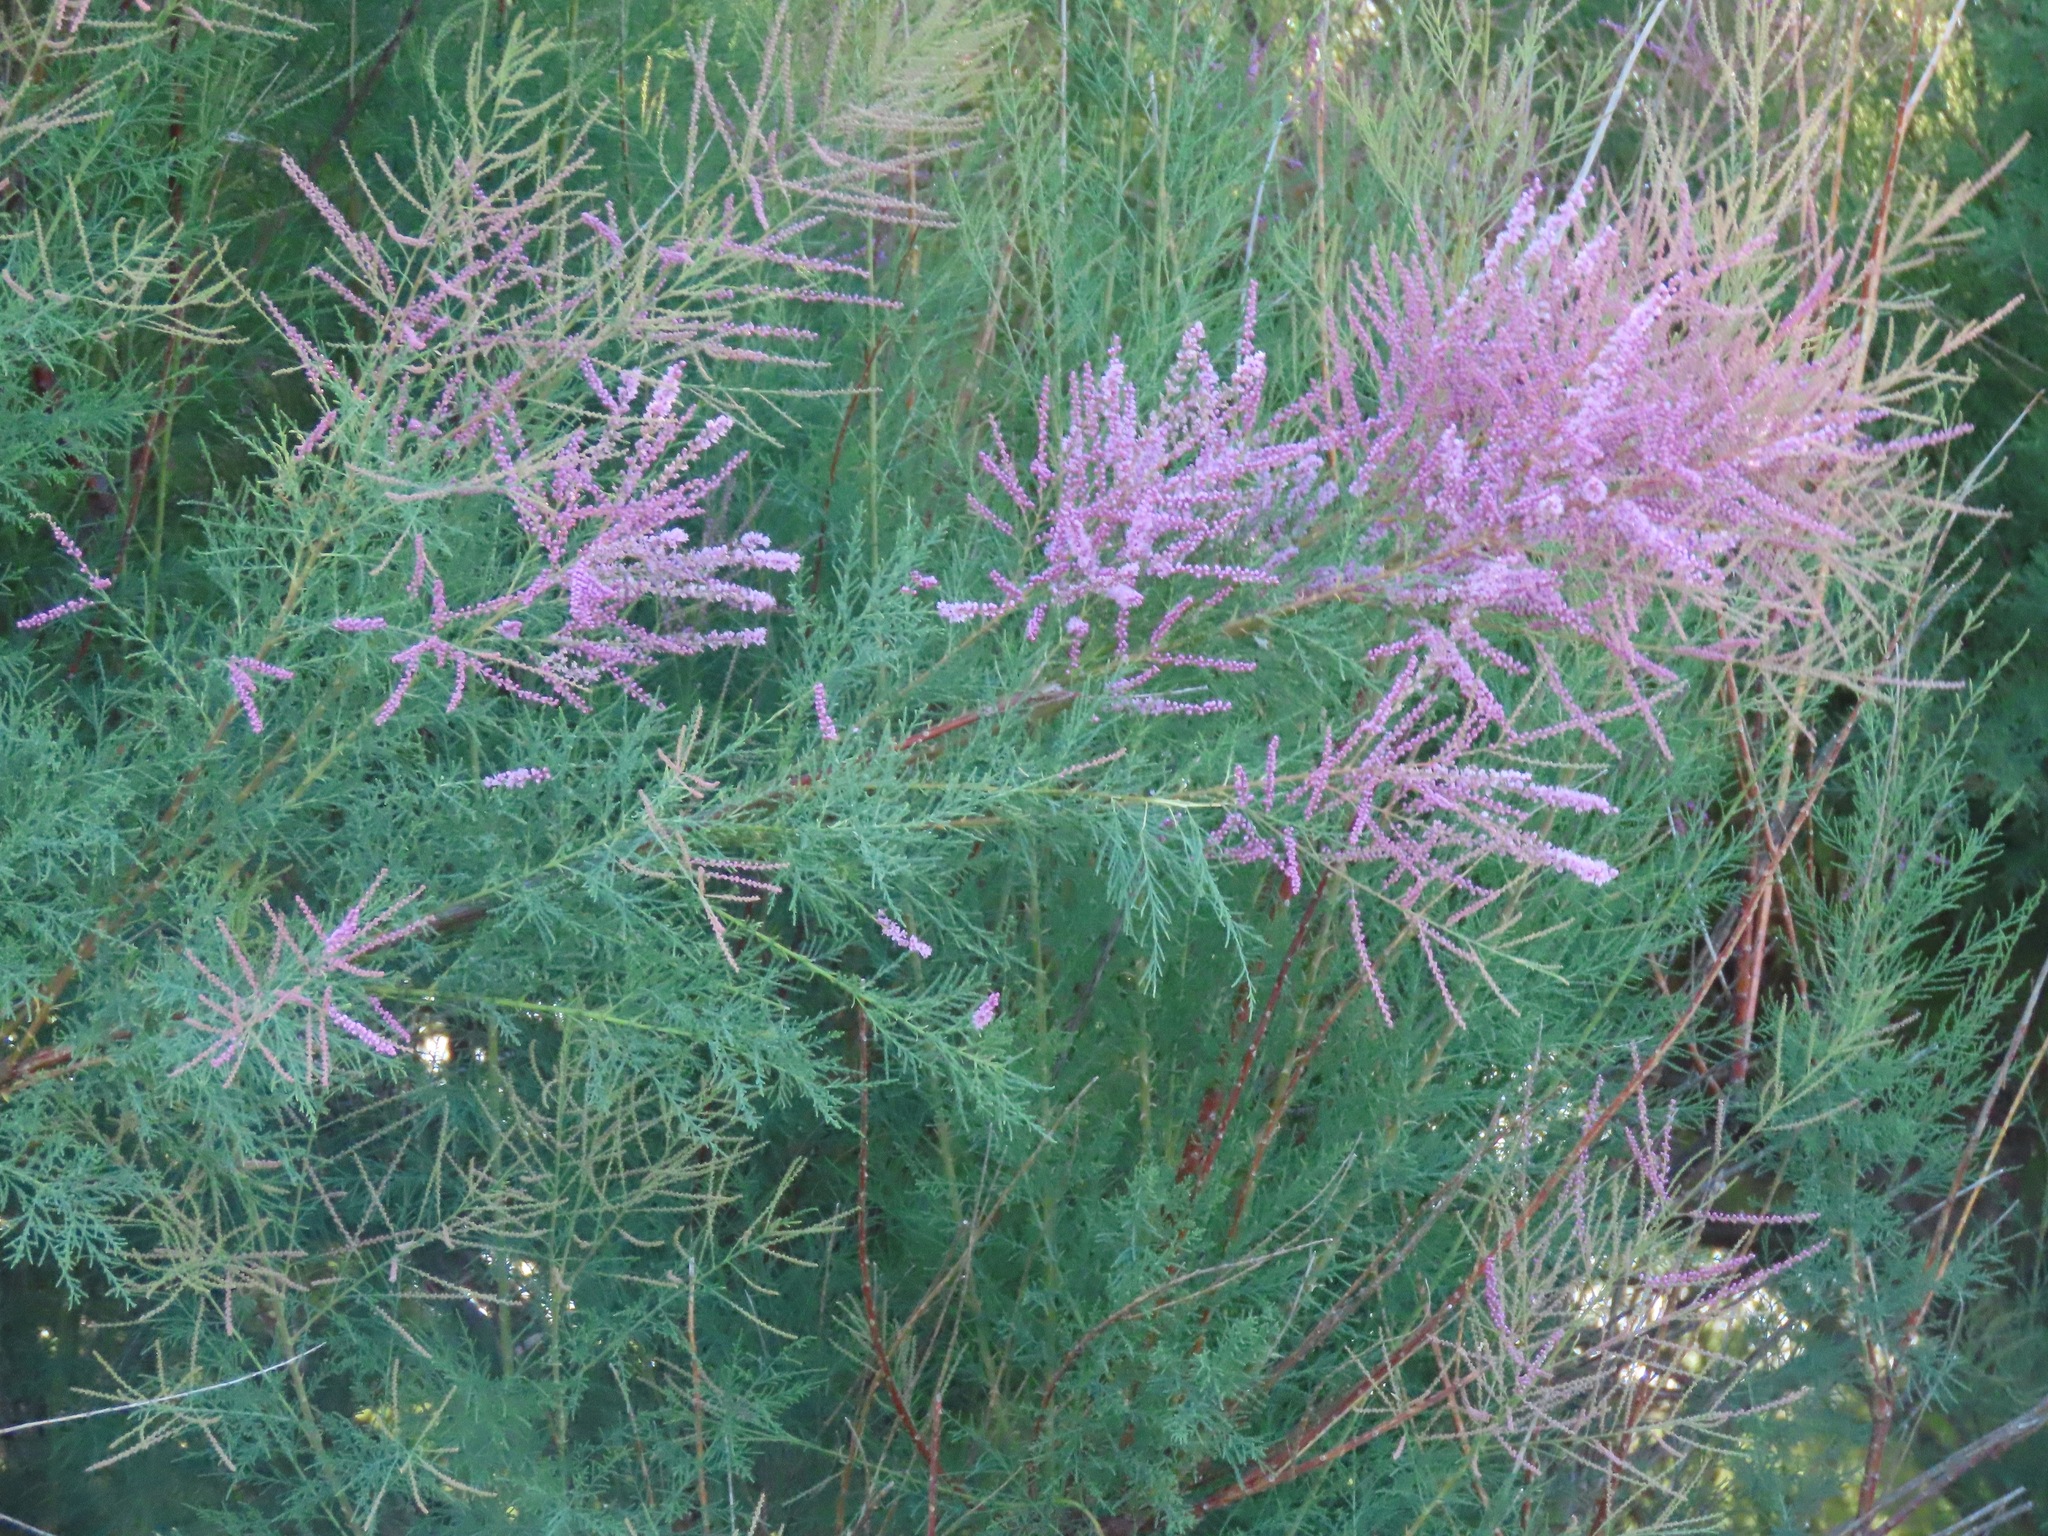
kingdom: Plantae
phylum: Tracheophyta
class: Magnoliopsida
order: Caryophyllales
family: Tamaricaceae
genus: Tamarix
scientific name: Tamarix ramosissima
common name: Pink tamarisk
